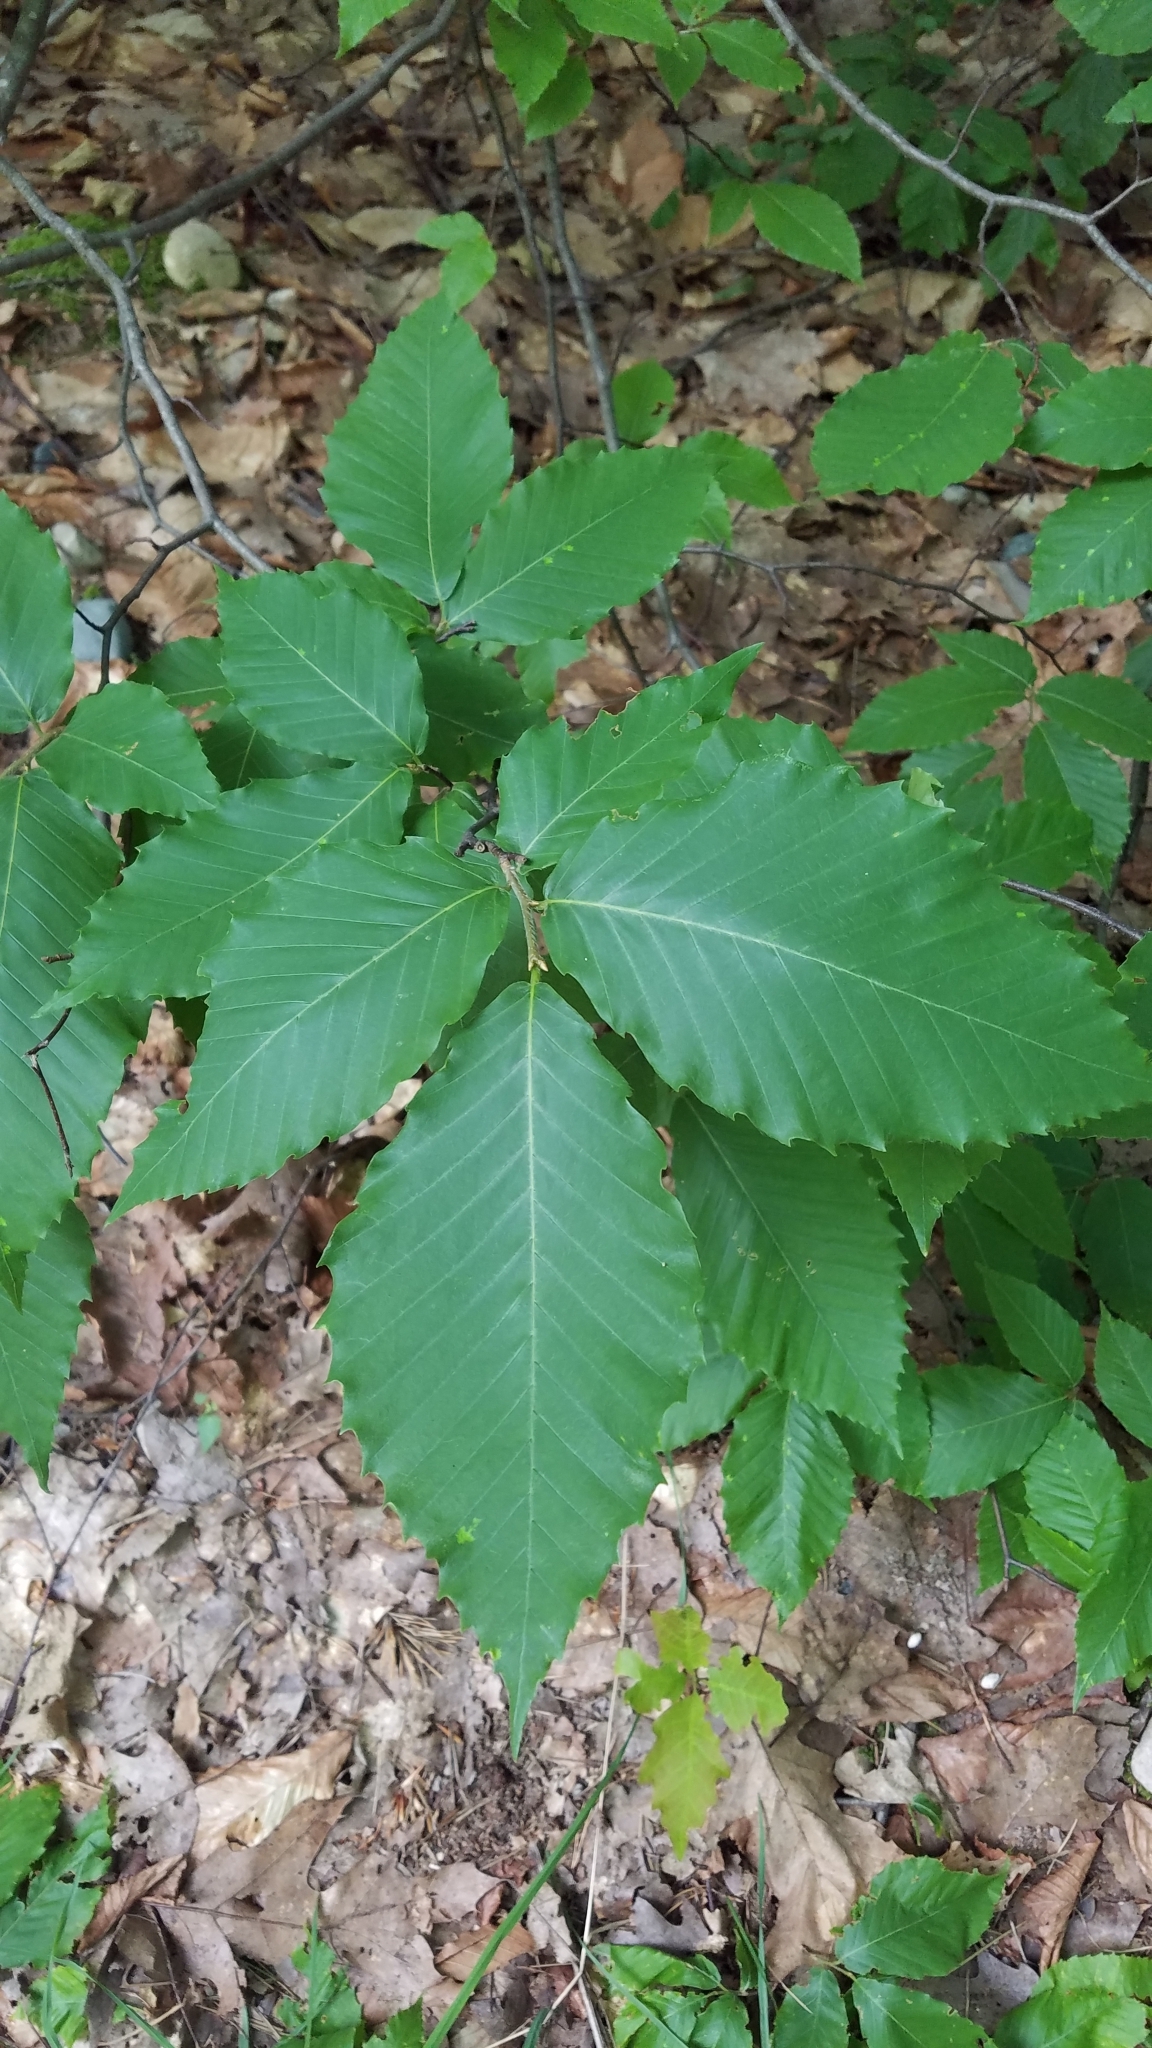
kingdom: Plantae
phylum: Tracheophyta
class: Magnoliopsida
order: Fagales
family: Fagaceae
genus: Fagus
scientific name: Fagus grandifolia
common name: American beech
